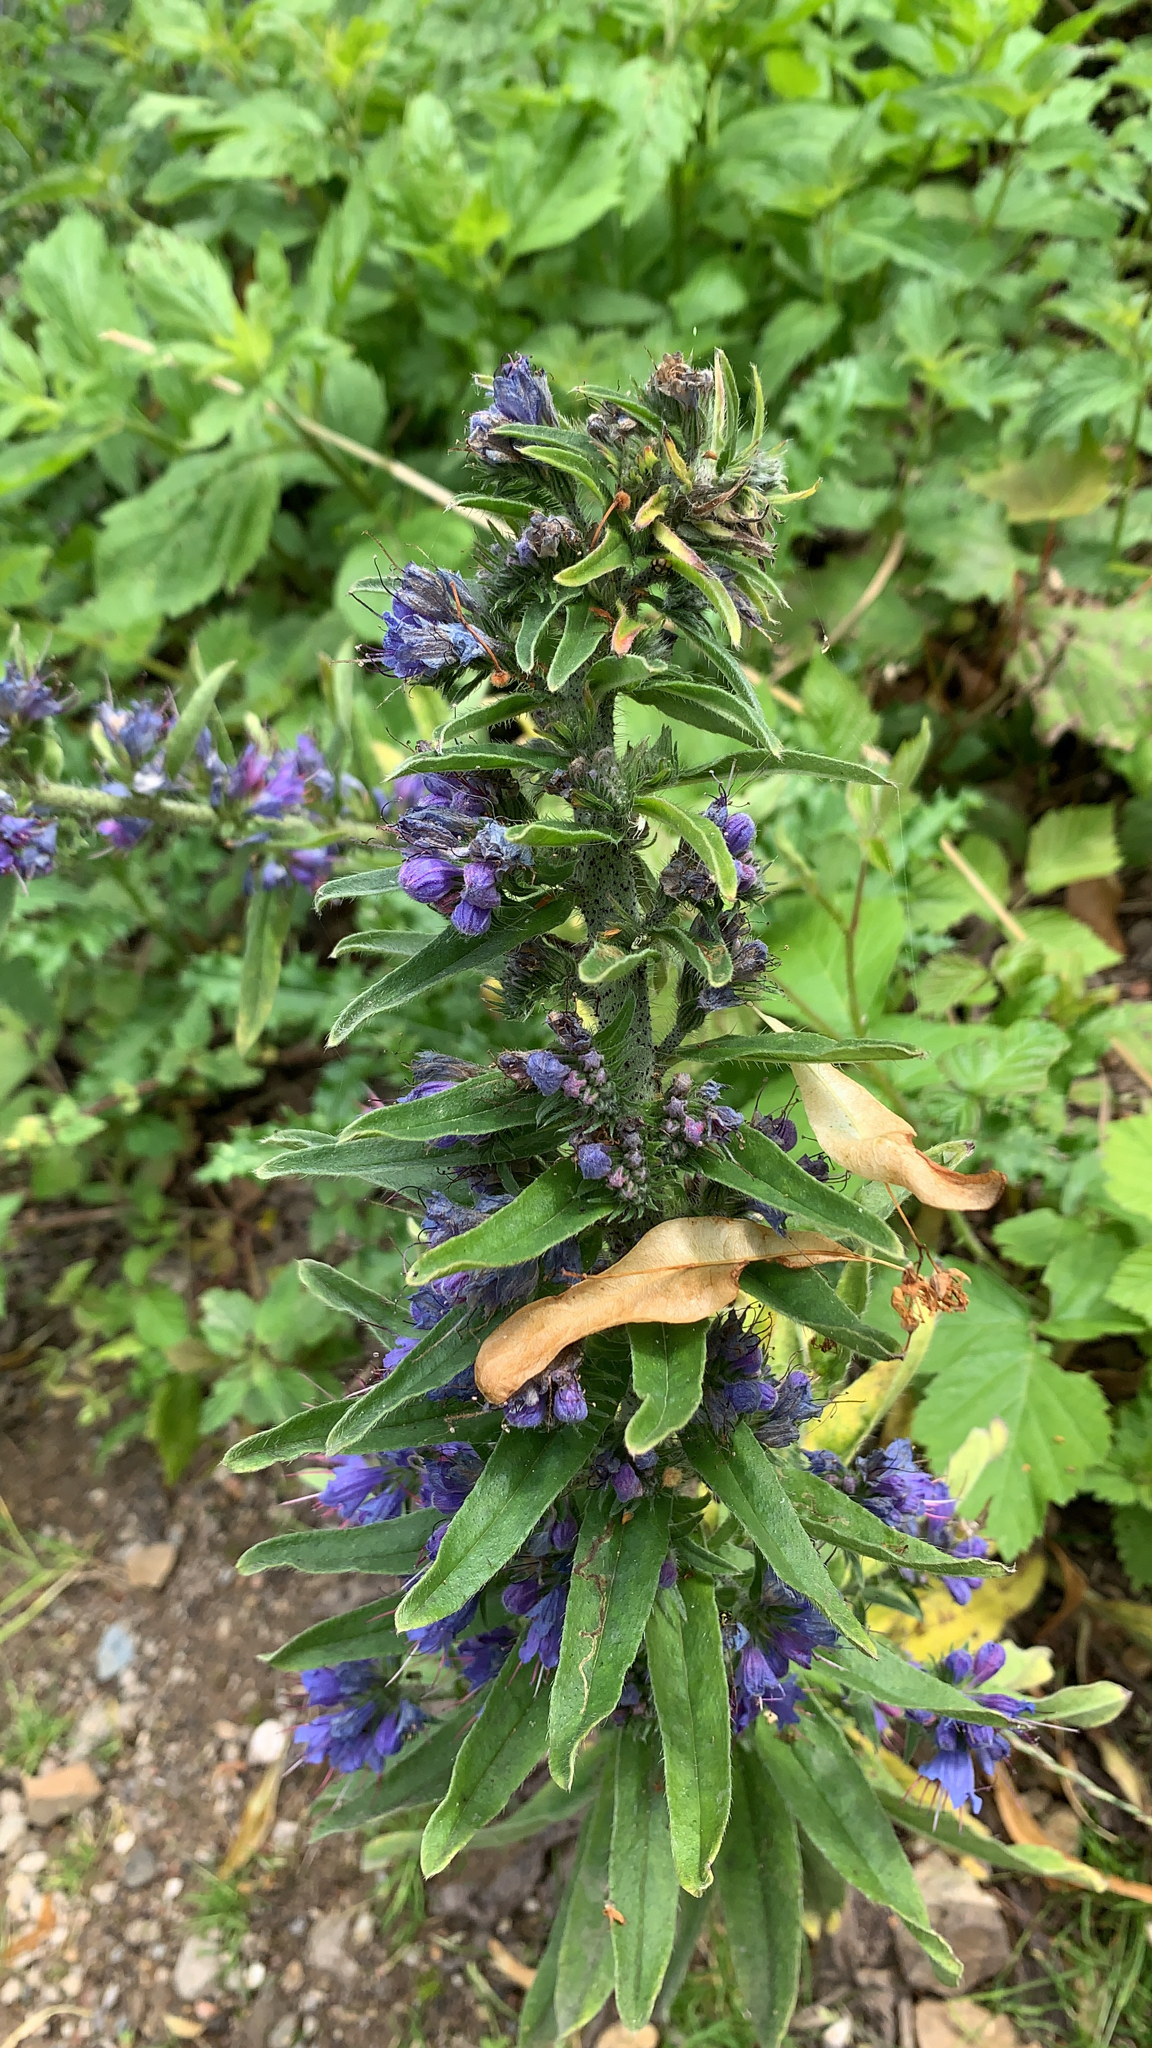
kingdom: Plantae
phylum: Tracheophyta
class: Magnoliopsida
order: Boraginales
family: Boraginaceae
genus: Echium
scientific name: Echium vulgare
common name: Common viper's bugloss
